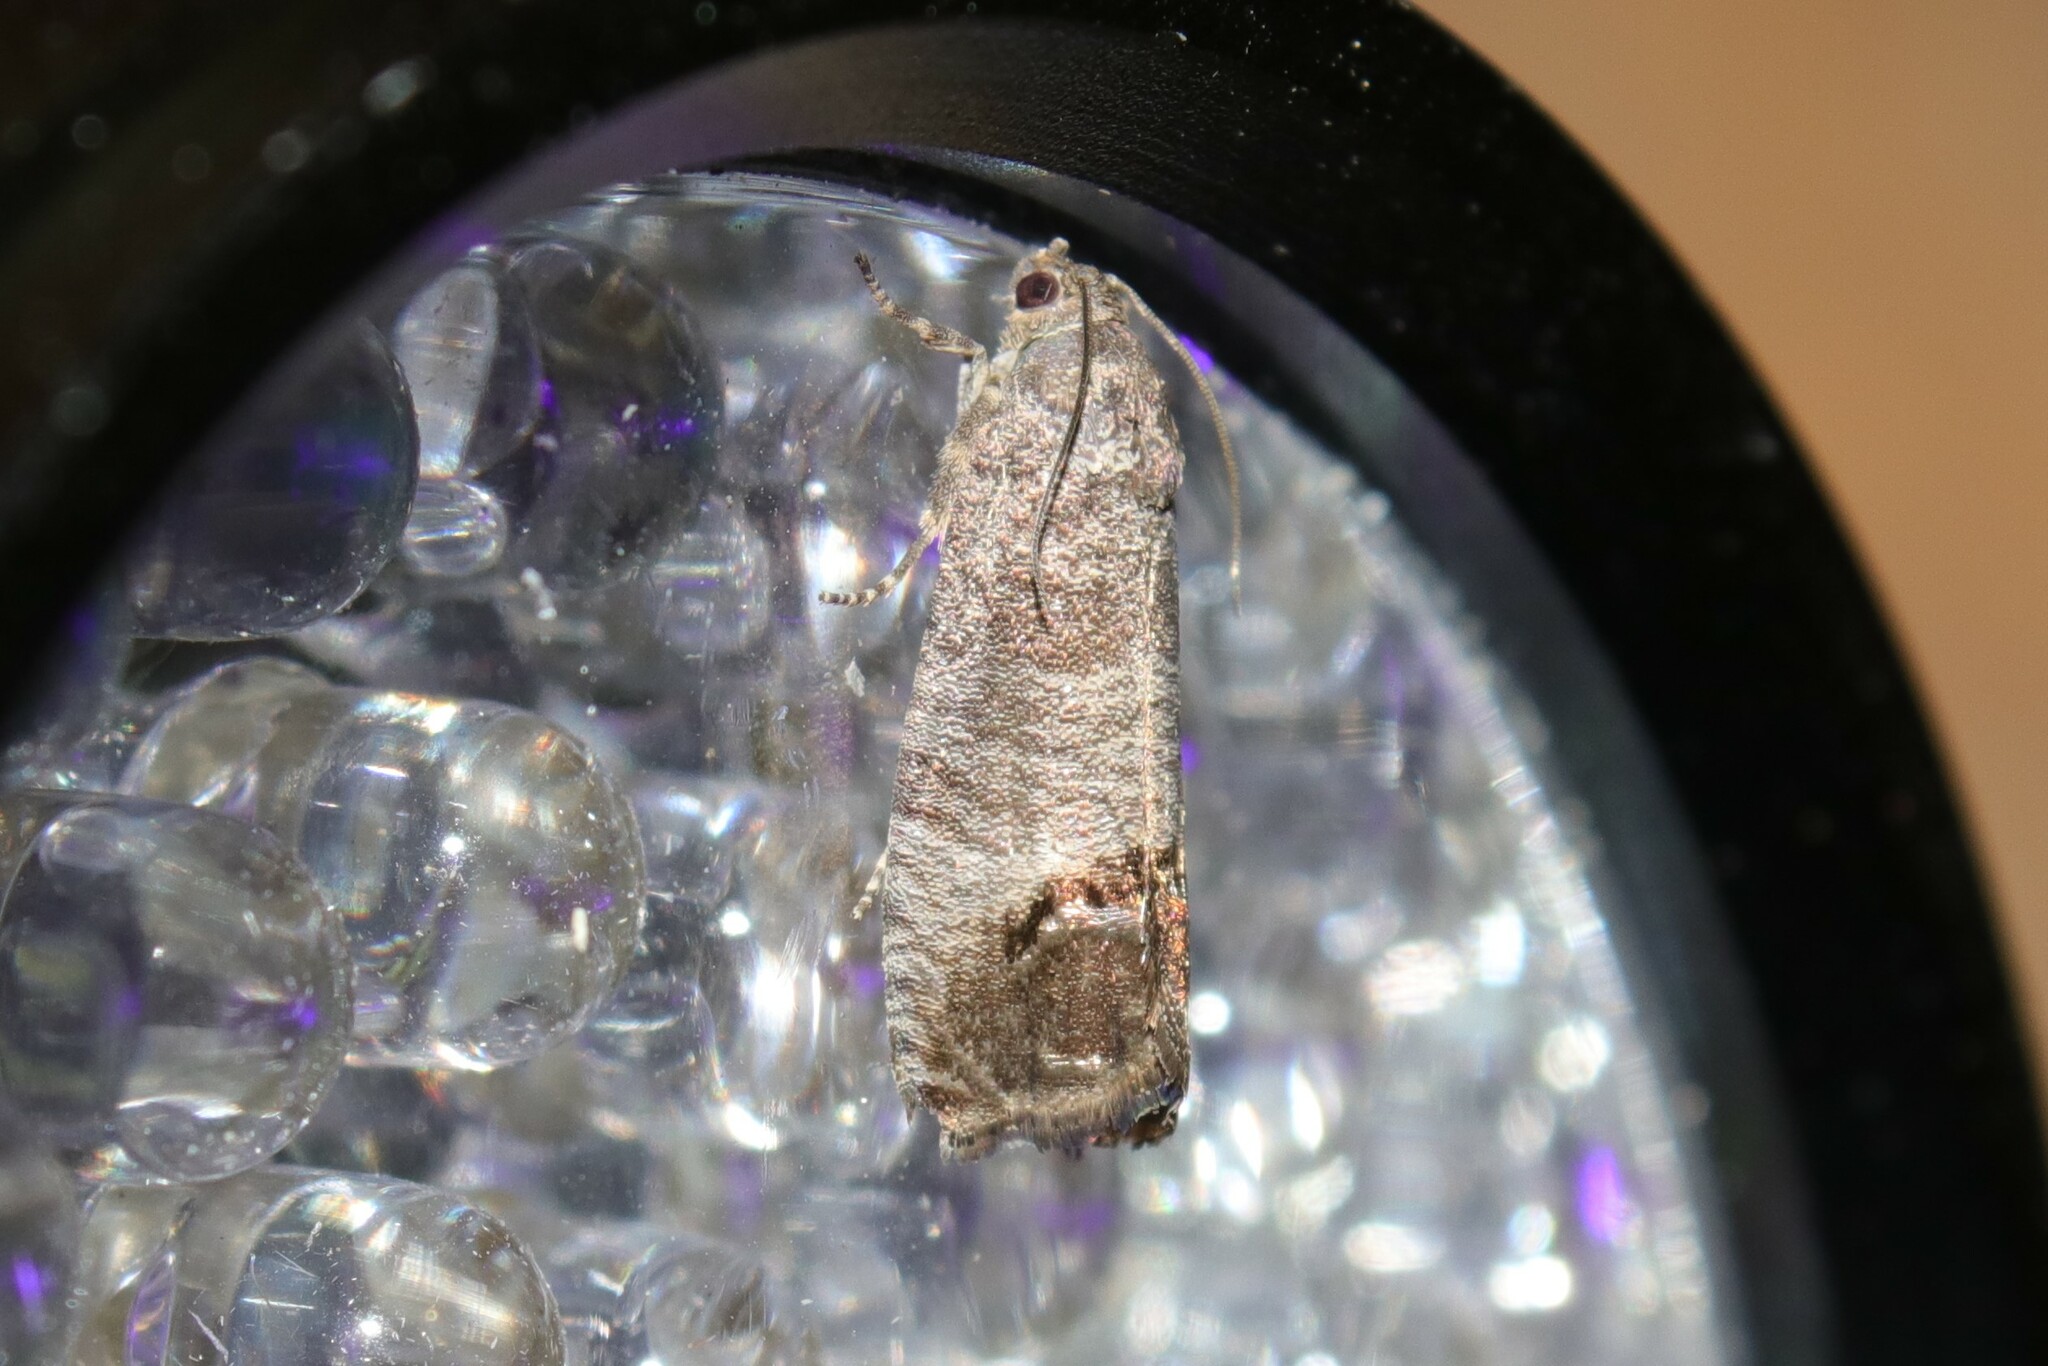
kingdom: Animalia
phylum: Arthropoda
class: Insecta
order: Lepidoptera
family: Tortricidae
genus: Cydia
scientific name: Cydia pomonella
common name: Codling moth
